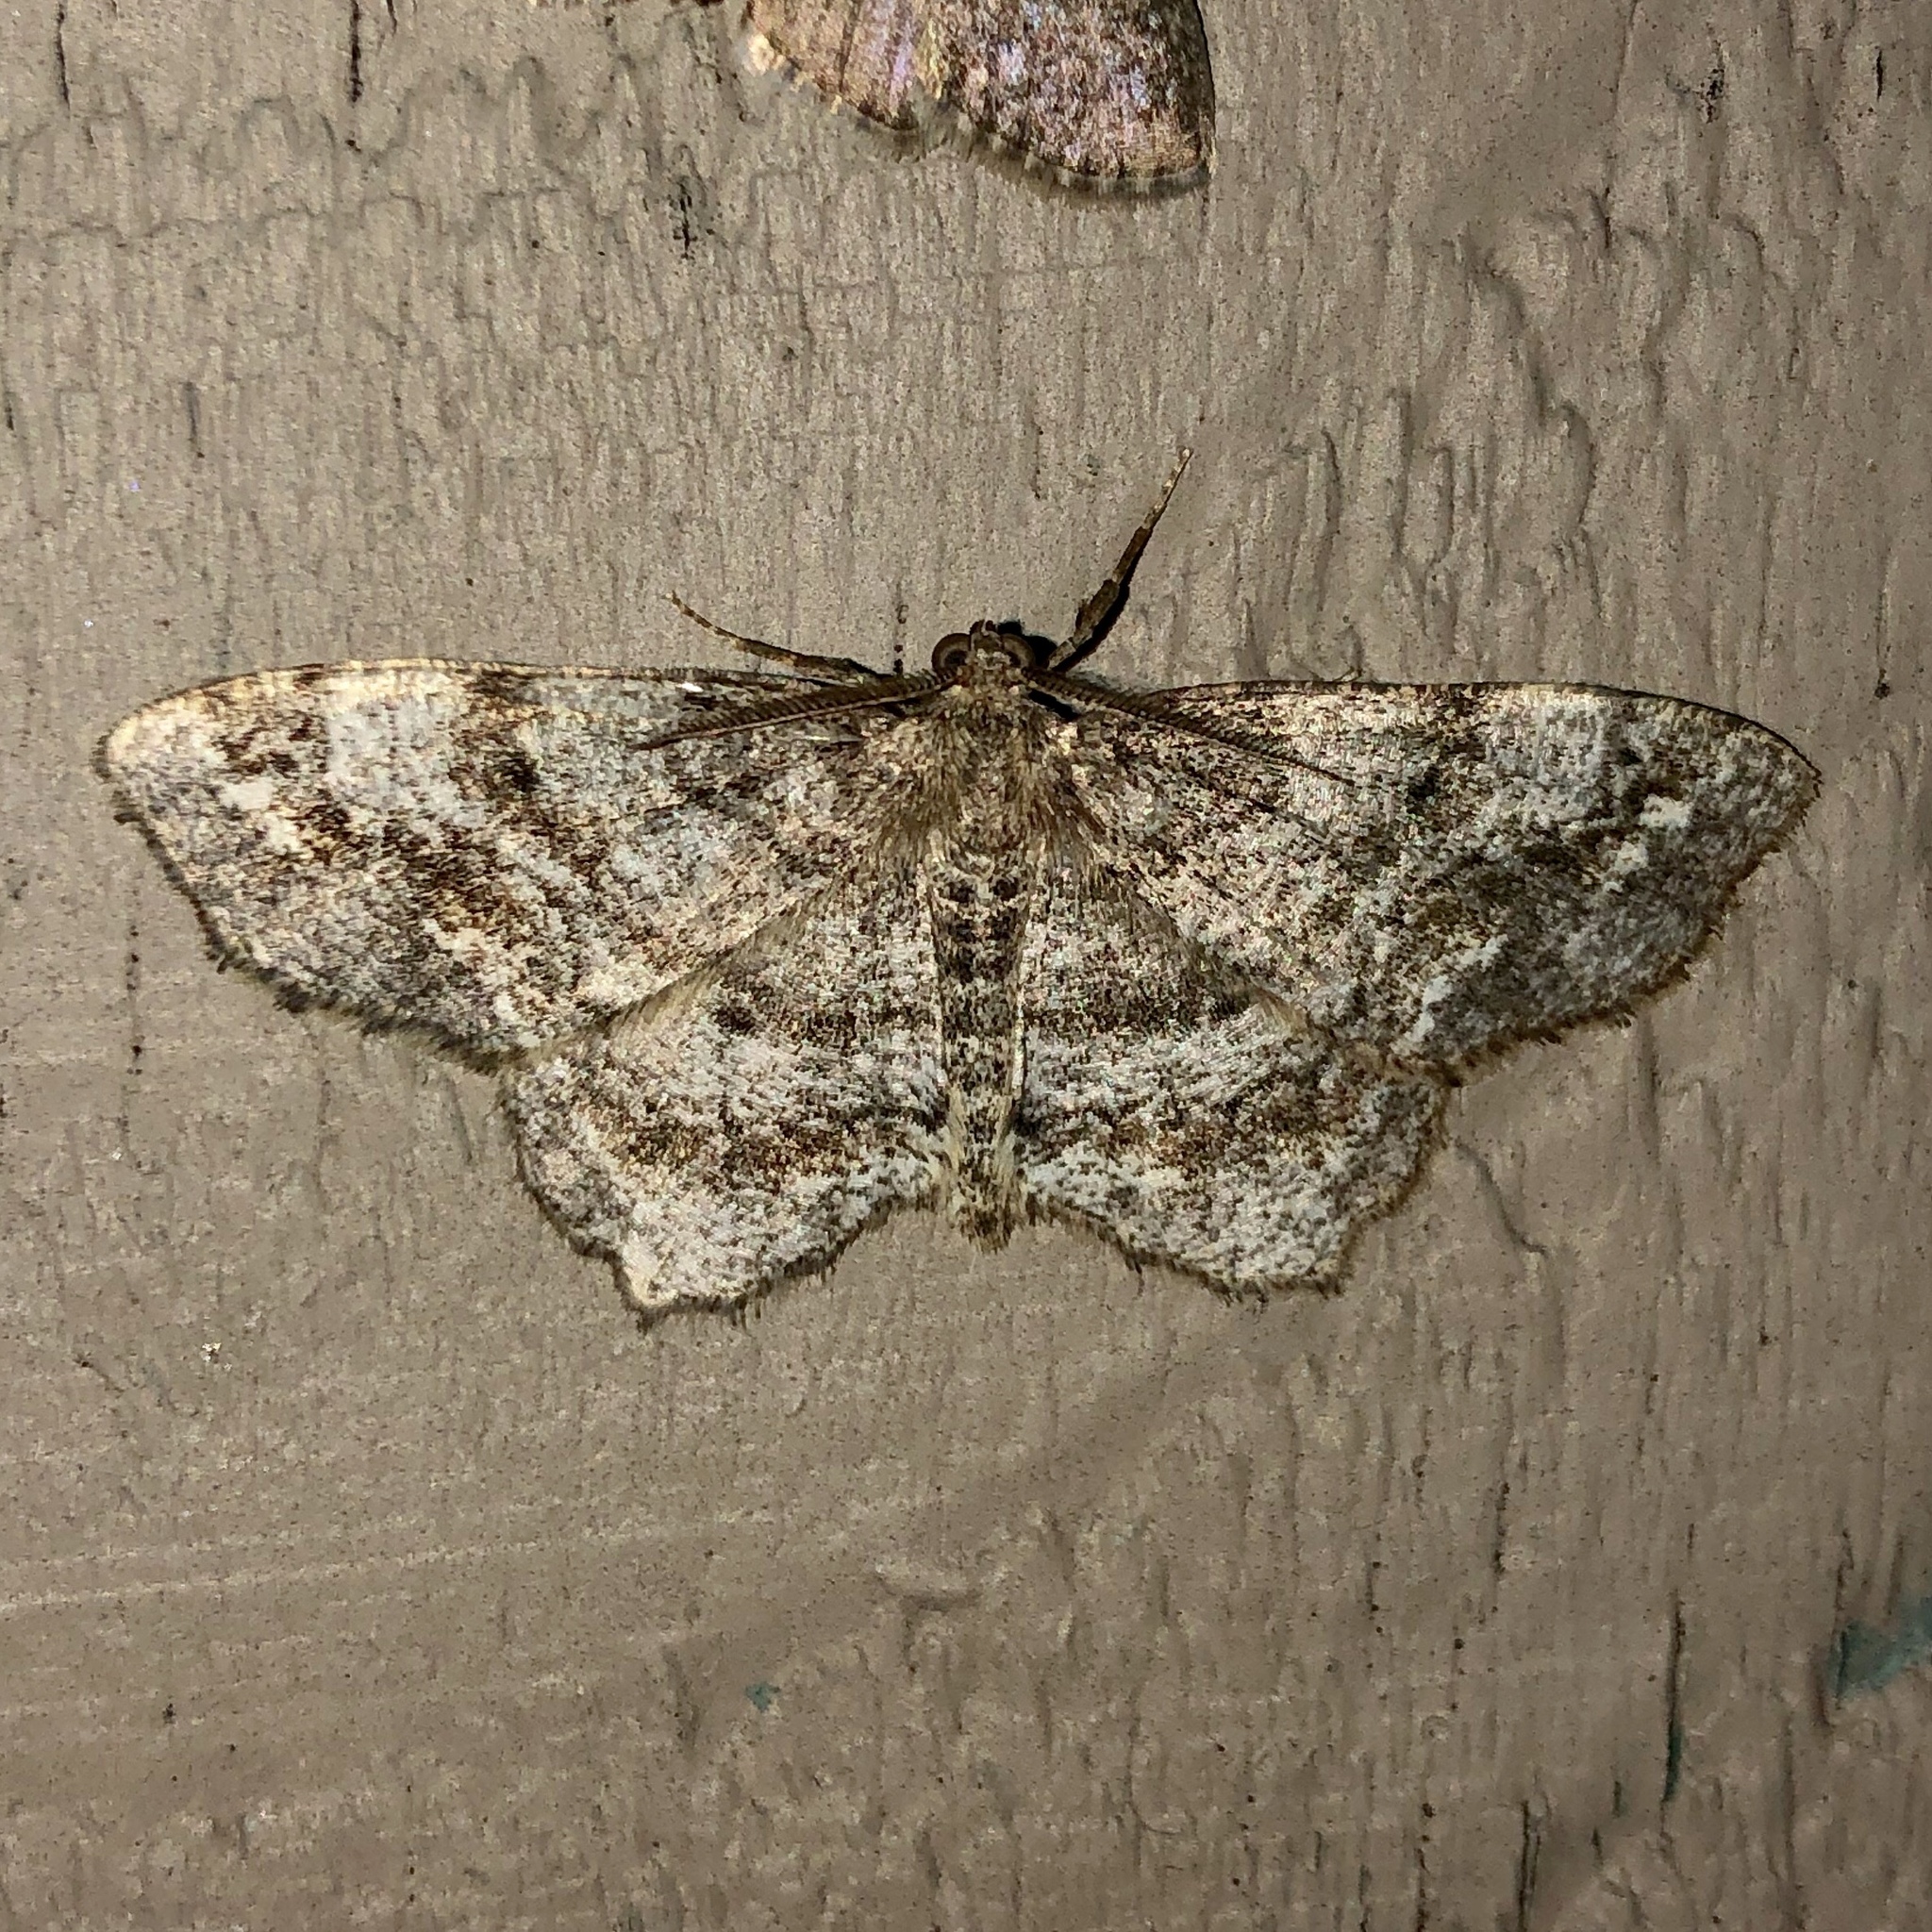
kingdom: Animalia
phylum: Arthropoda
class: Insecta
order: Lepidoptera
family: Geometridae
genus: Hypagyrtis
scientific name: Hypagyrtis unipunctata
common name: One-spotted variant
